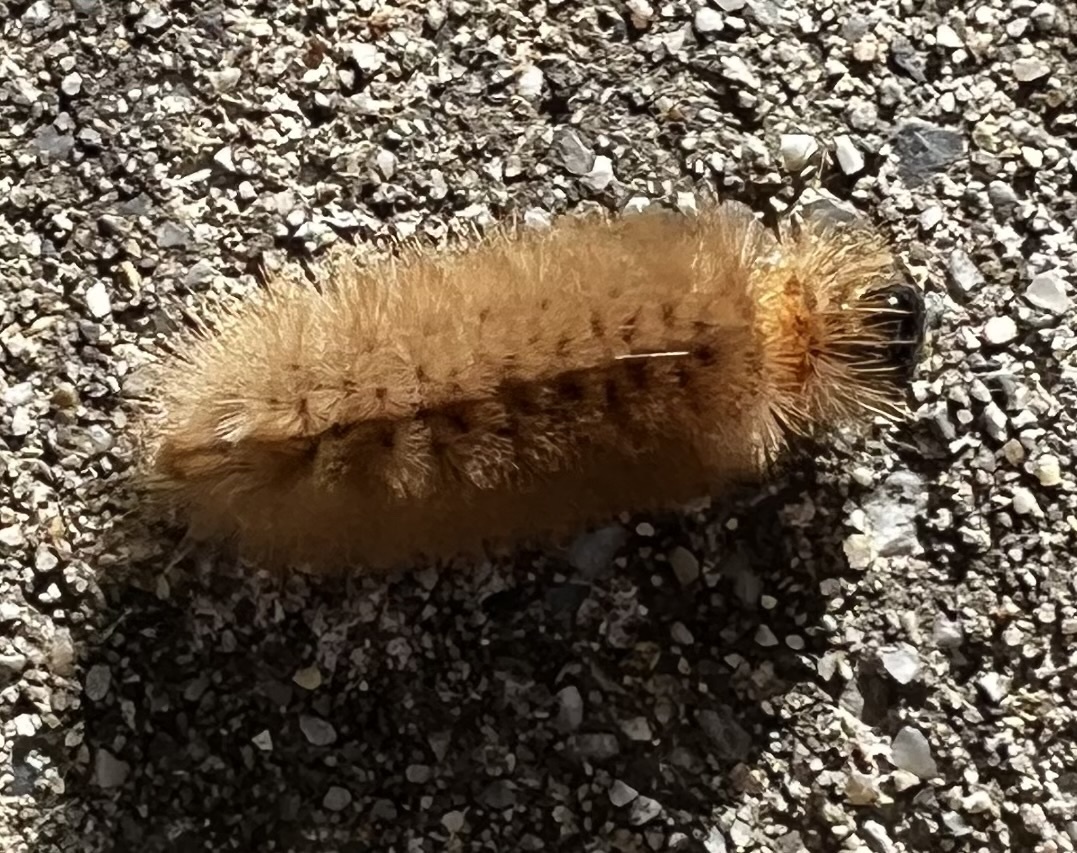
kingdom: Animalia
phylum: Arthropoda
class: Insecta
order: Lepidoptera
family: Erebidae
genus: Halysidota
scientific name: Halysidota tessellaris
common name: Banded tussock moth
